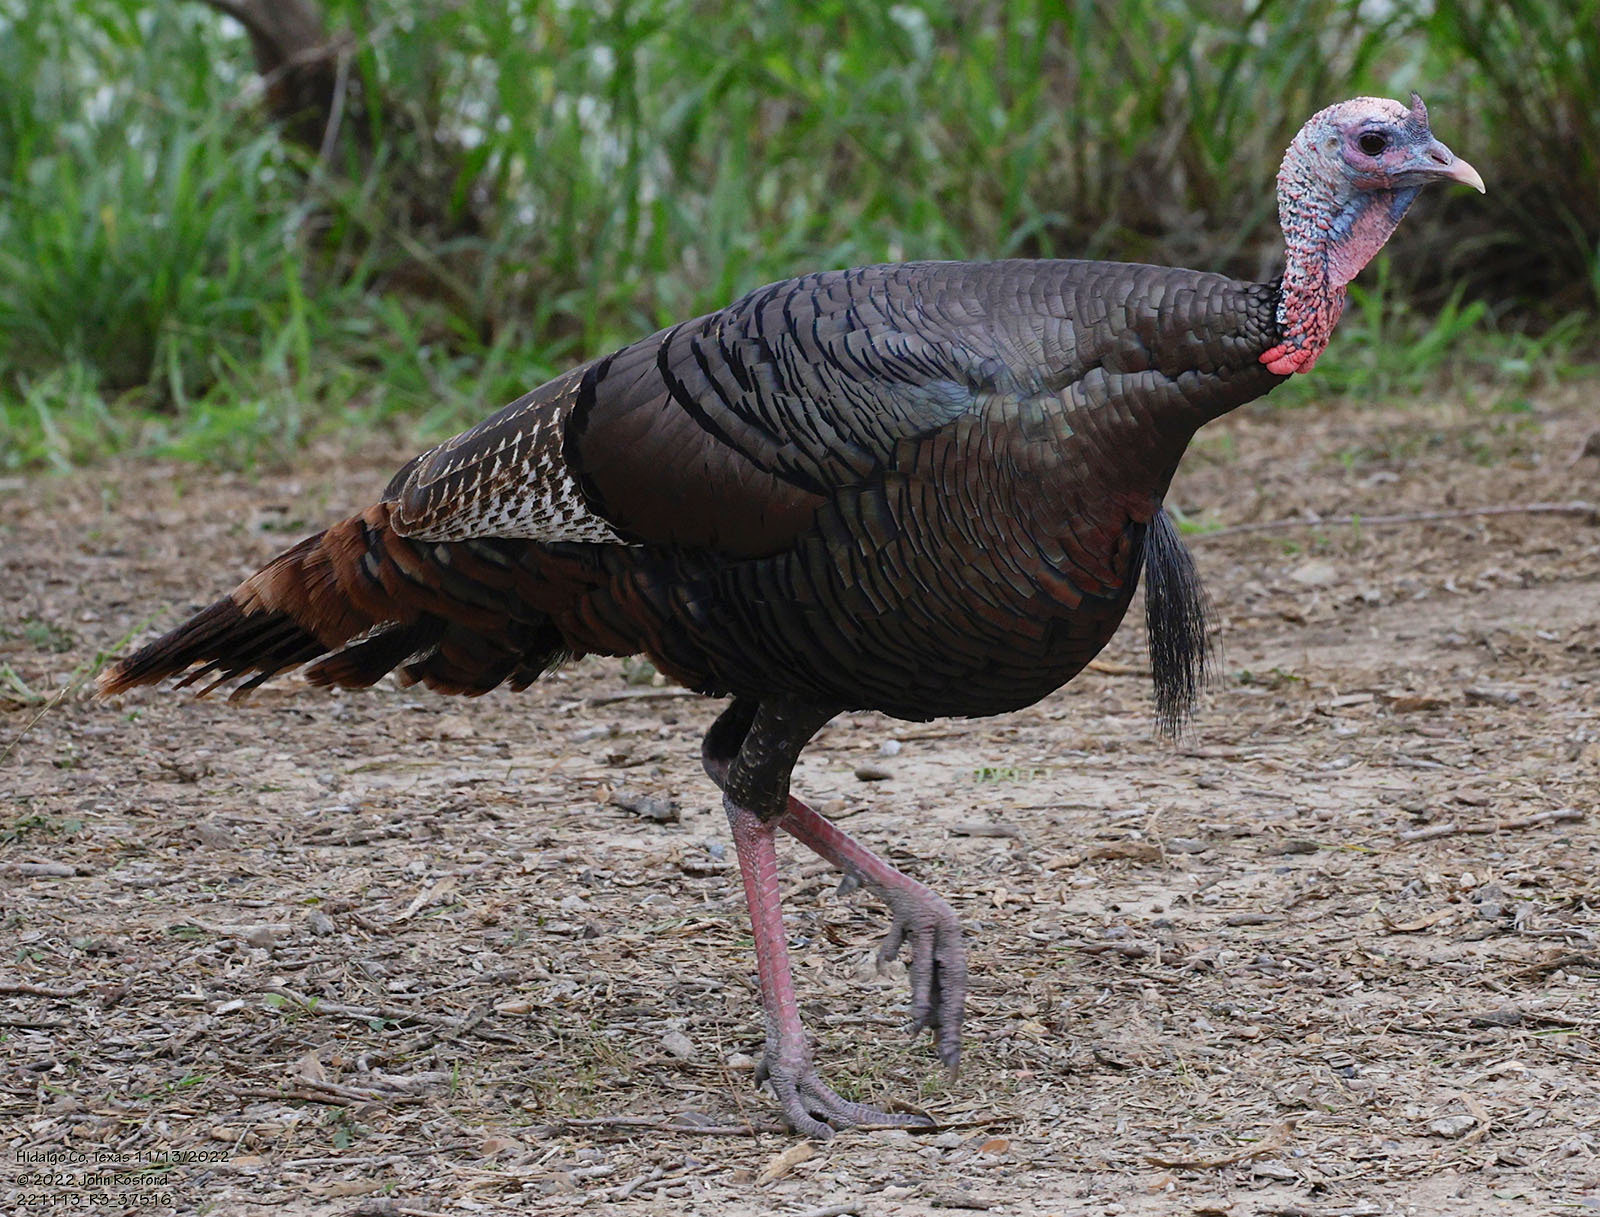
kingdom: Animalia
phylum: Chordata
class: Aves
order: Galliformes
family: Phasianidae
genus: Meleagris
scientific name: Meleagris gallopavo
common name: Wild turkey
